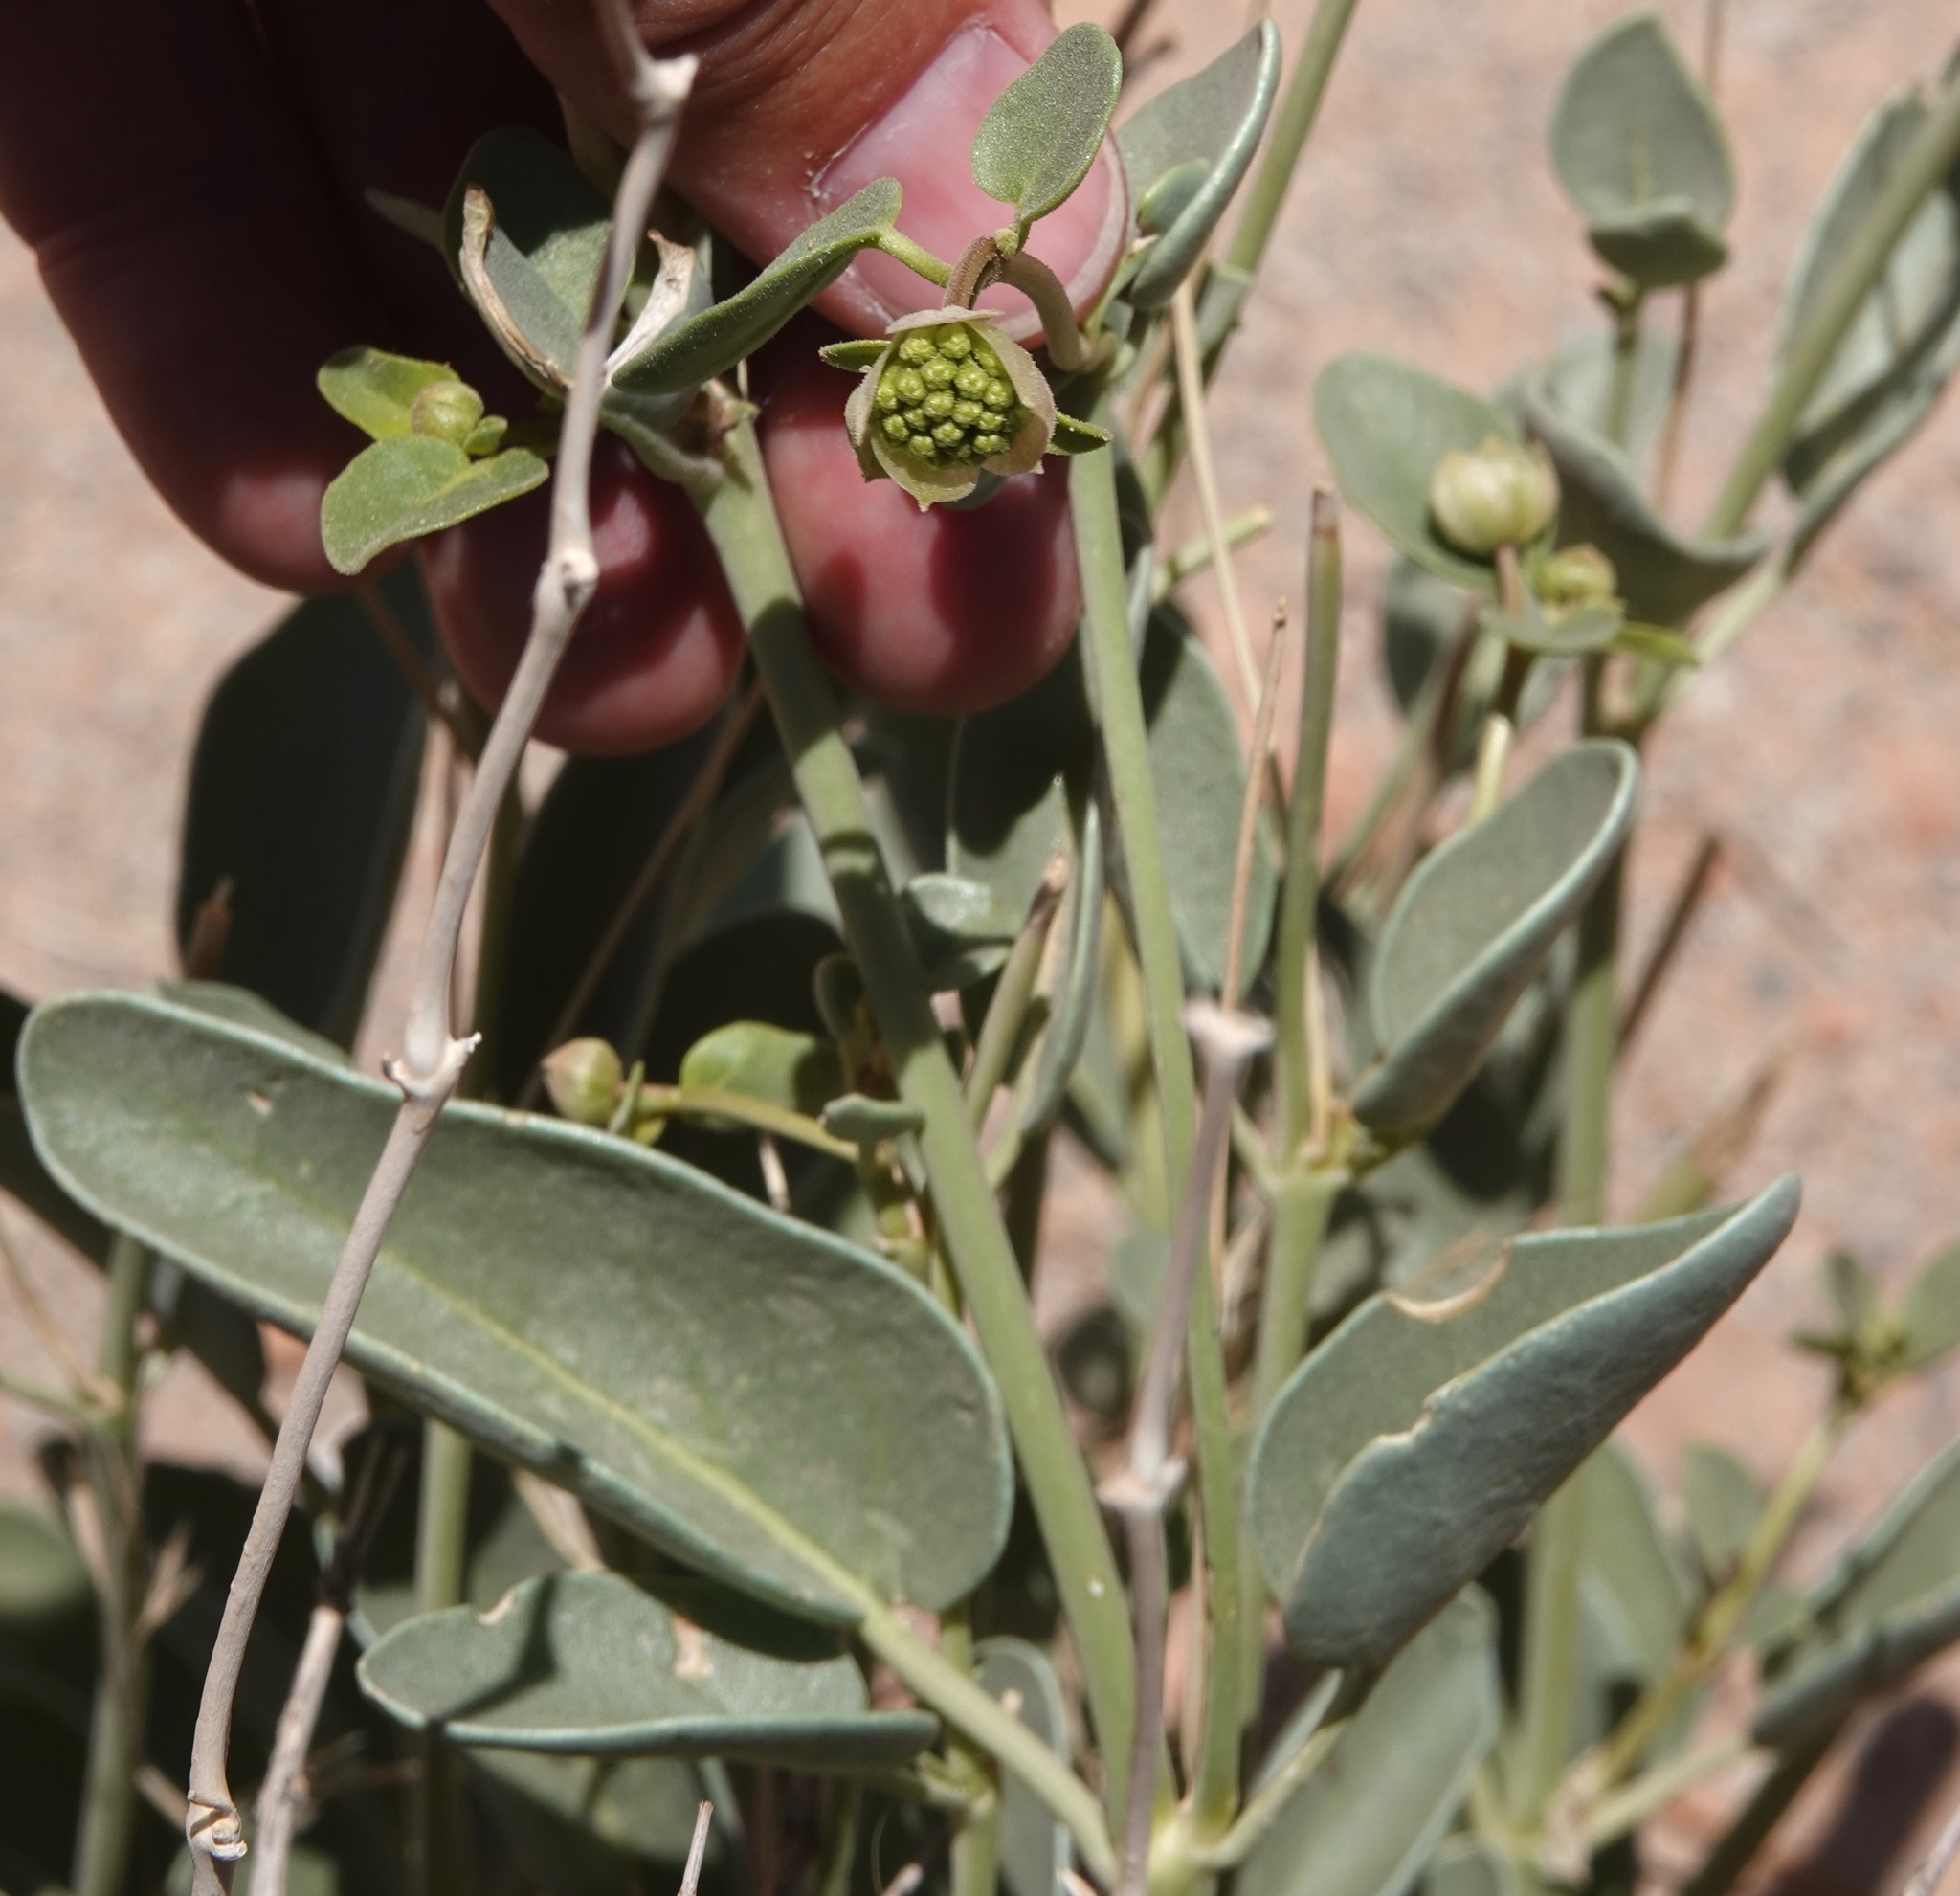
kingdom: Plantae
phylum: Tracheophyta
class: Magnoliopsida
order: Caryophyllales
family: Nyctaginaceae
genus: Abronia
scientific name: Abronia elliptica
